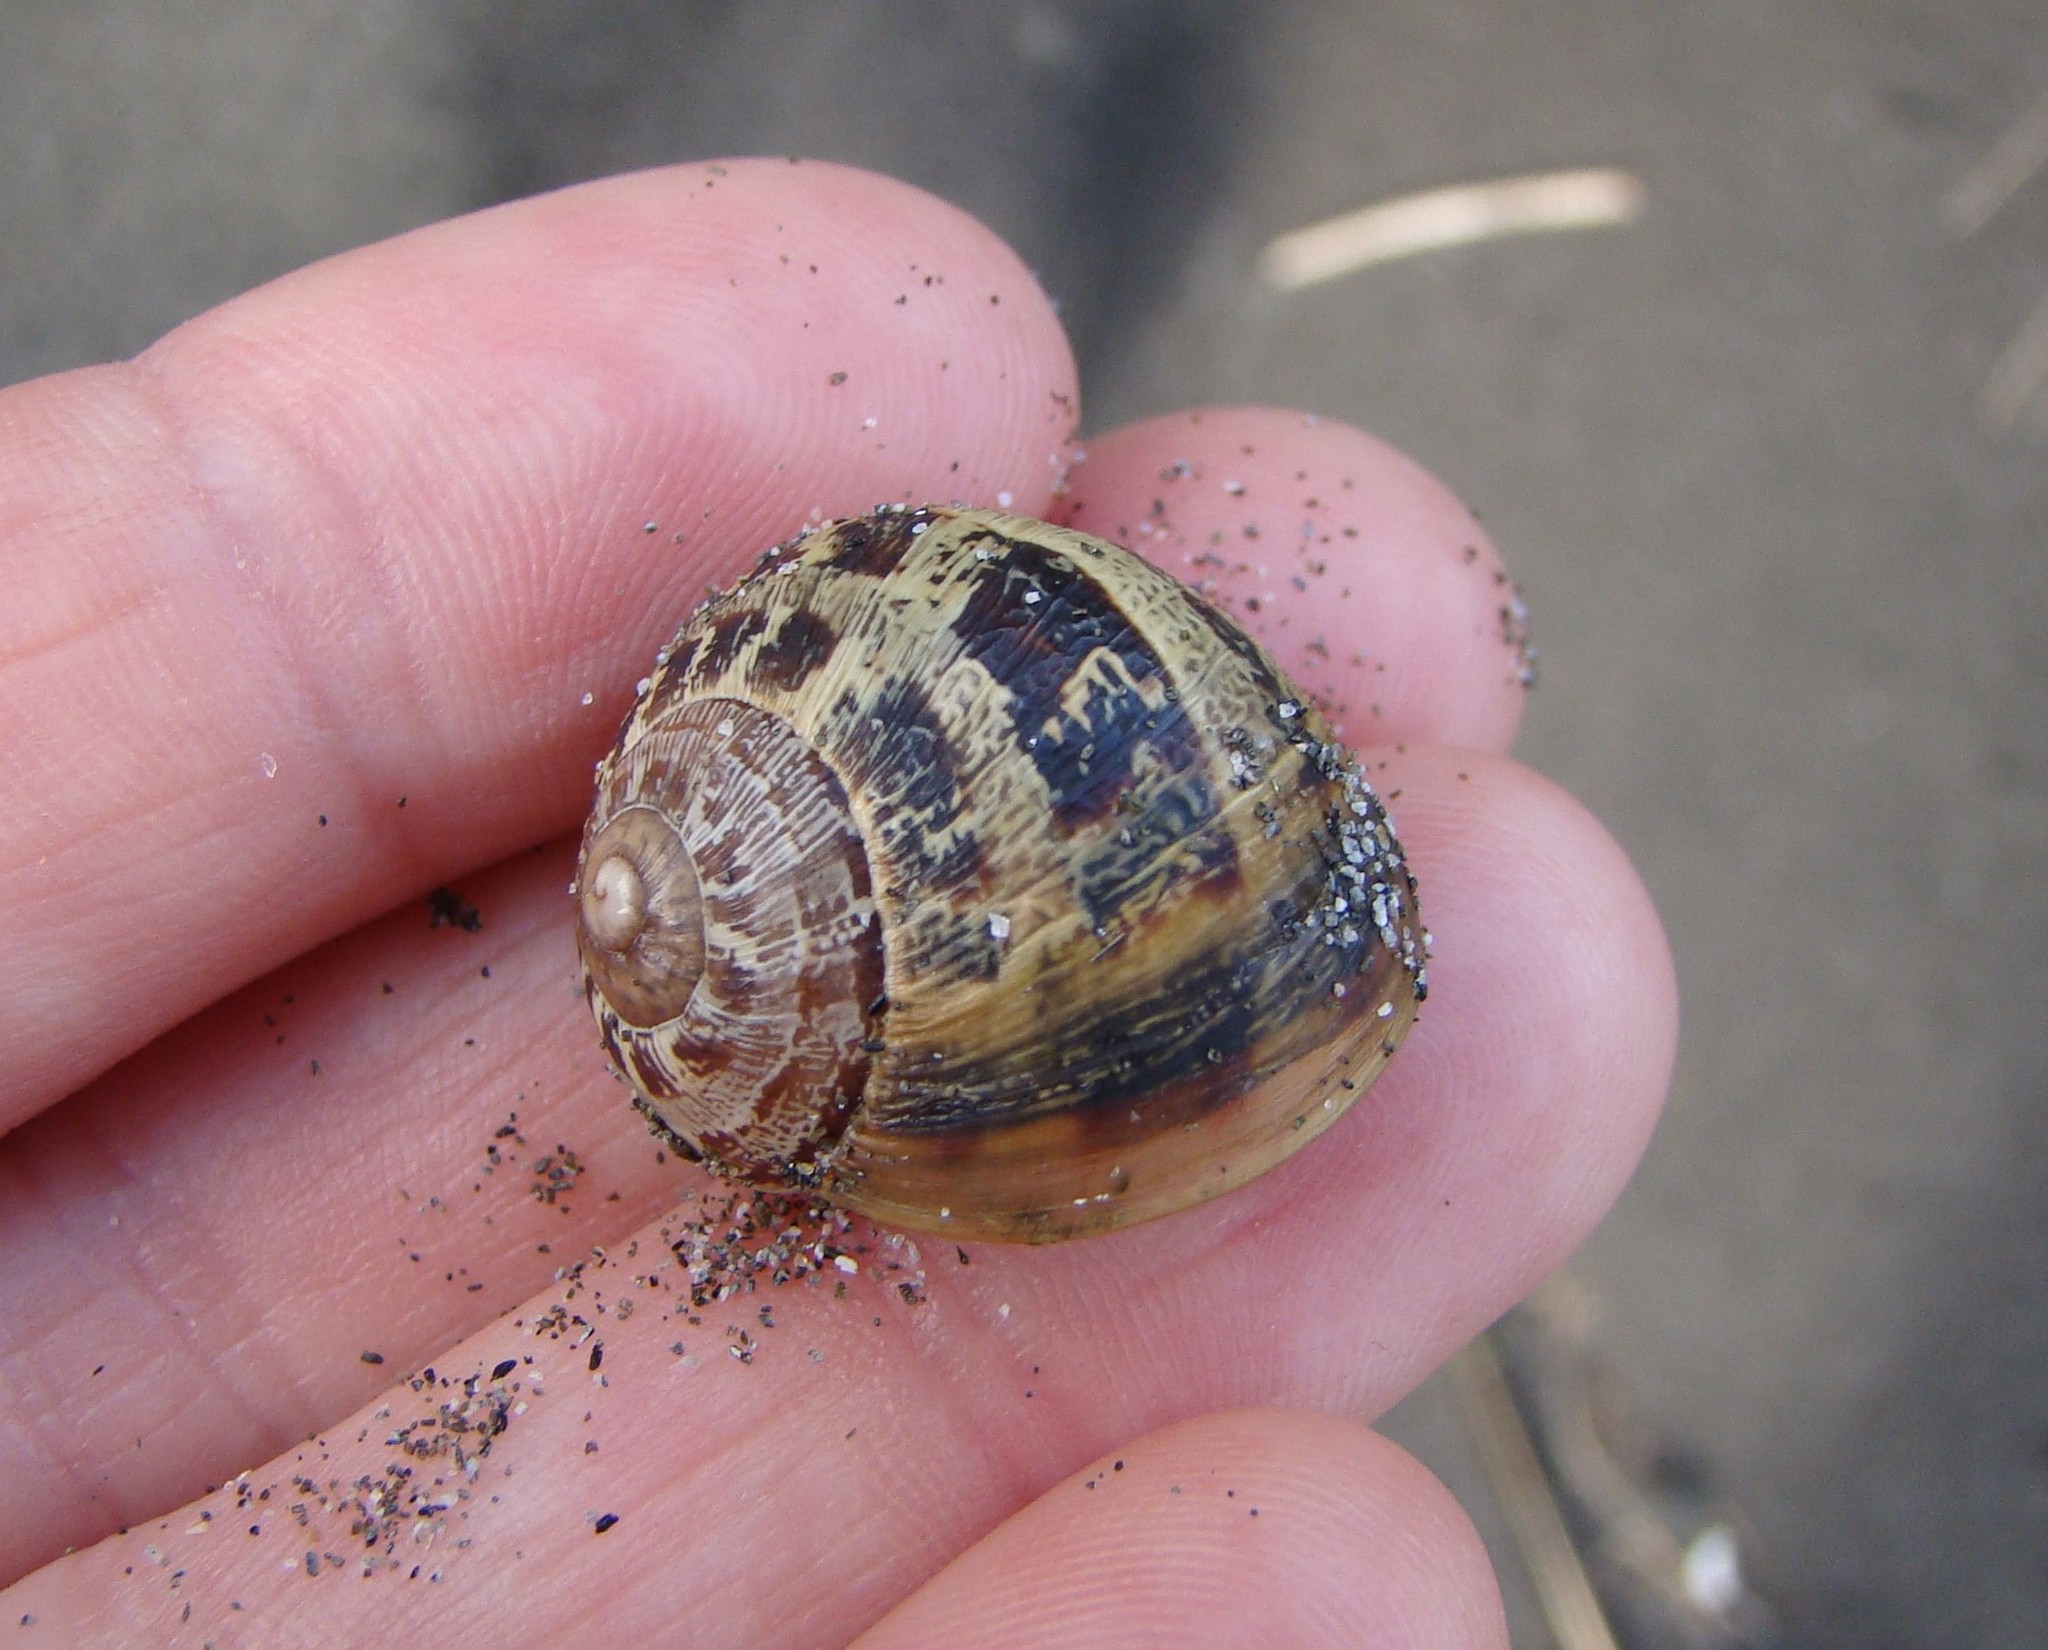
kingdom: Animalia
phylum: Mollusca
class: Gastropoda
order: Stylommatophora
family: Helicidae
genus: Cornu
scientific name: Cornu aspersum
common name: Brown garden snail
